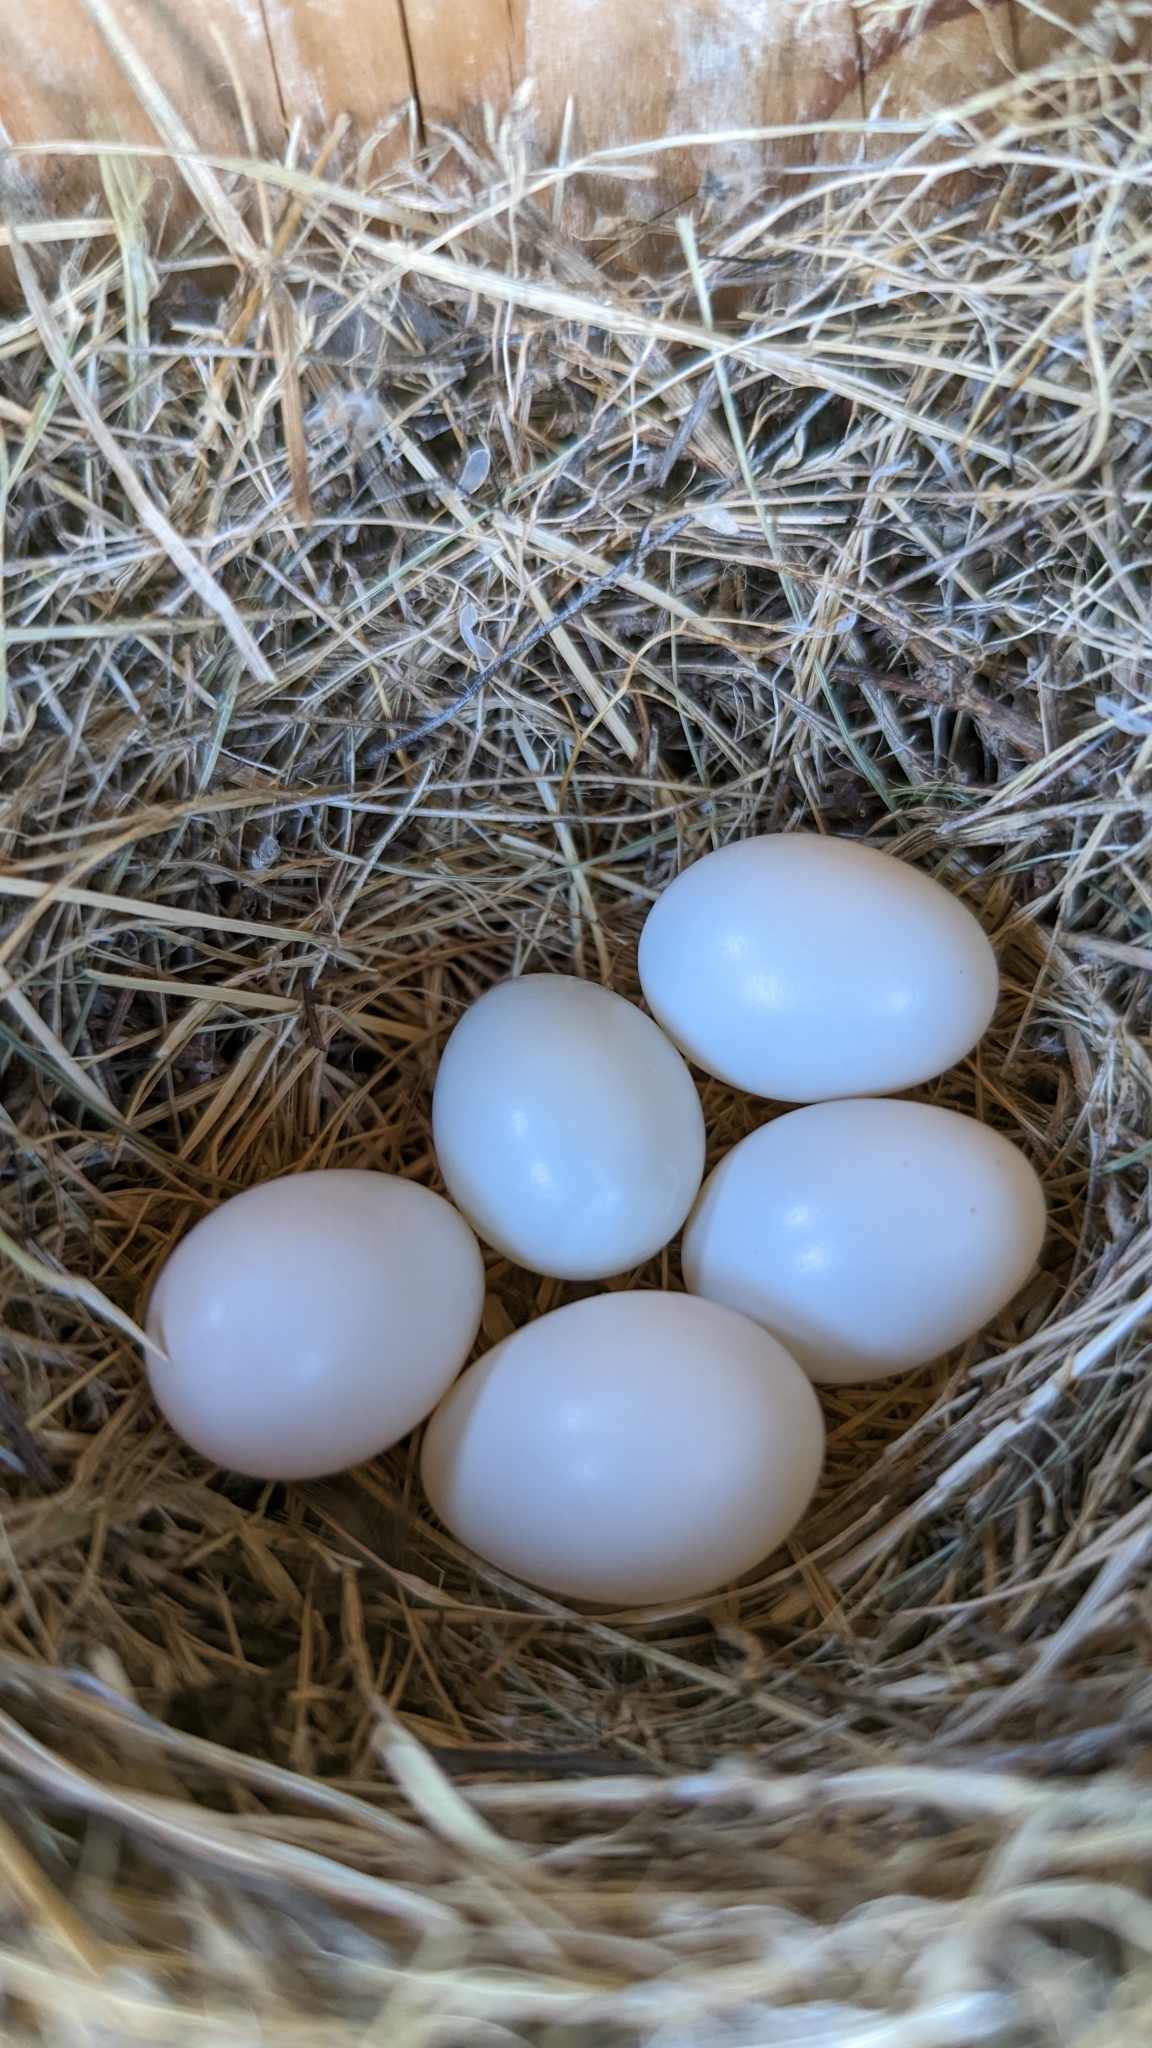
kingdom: Animalia
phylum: Chordata
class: Aves
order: Passeriformes
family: Hirundinidae
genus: Tachycineta
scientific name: Tachycineta bicolor
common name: Tree swallow
